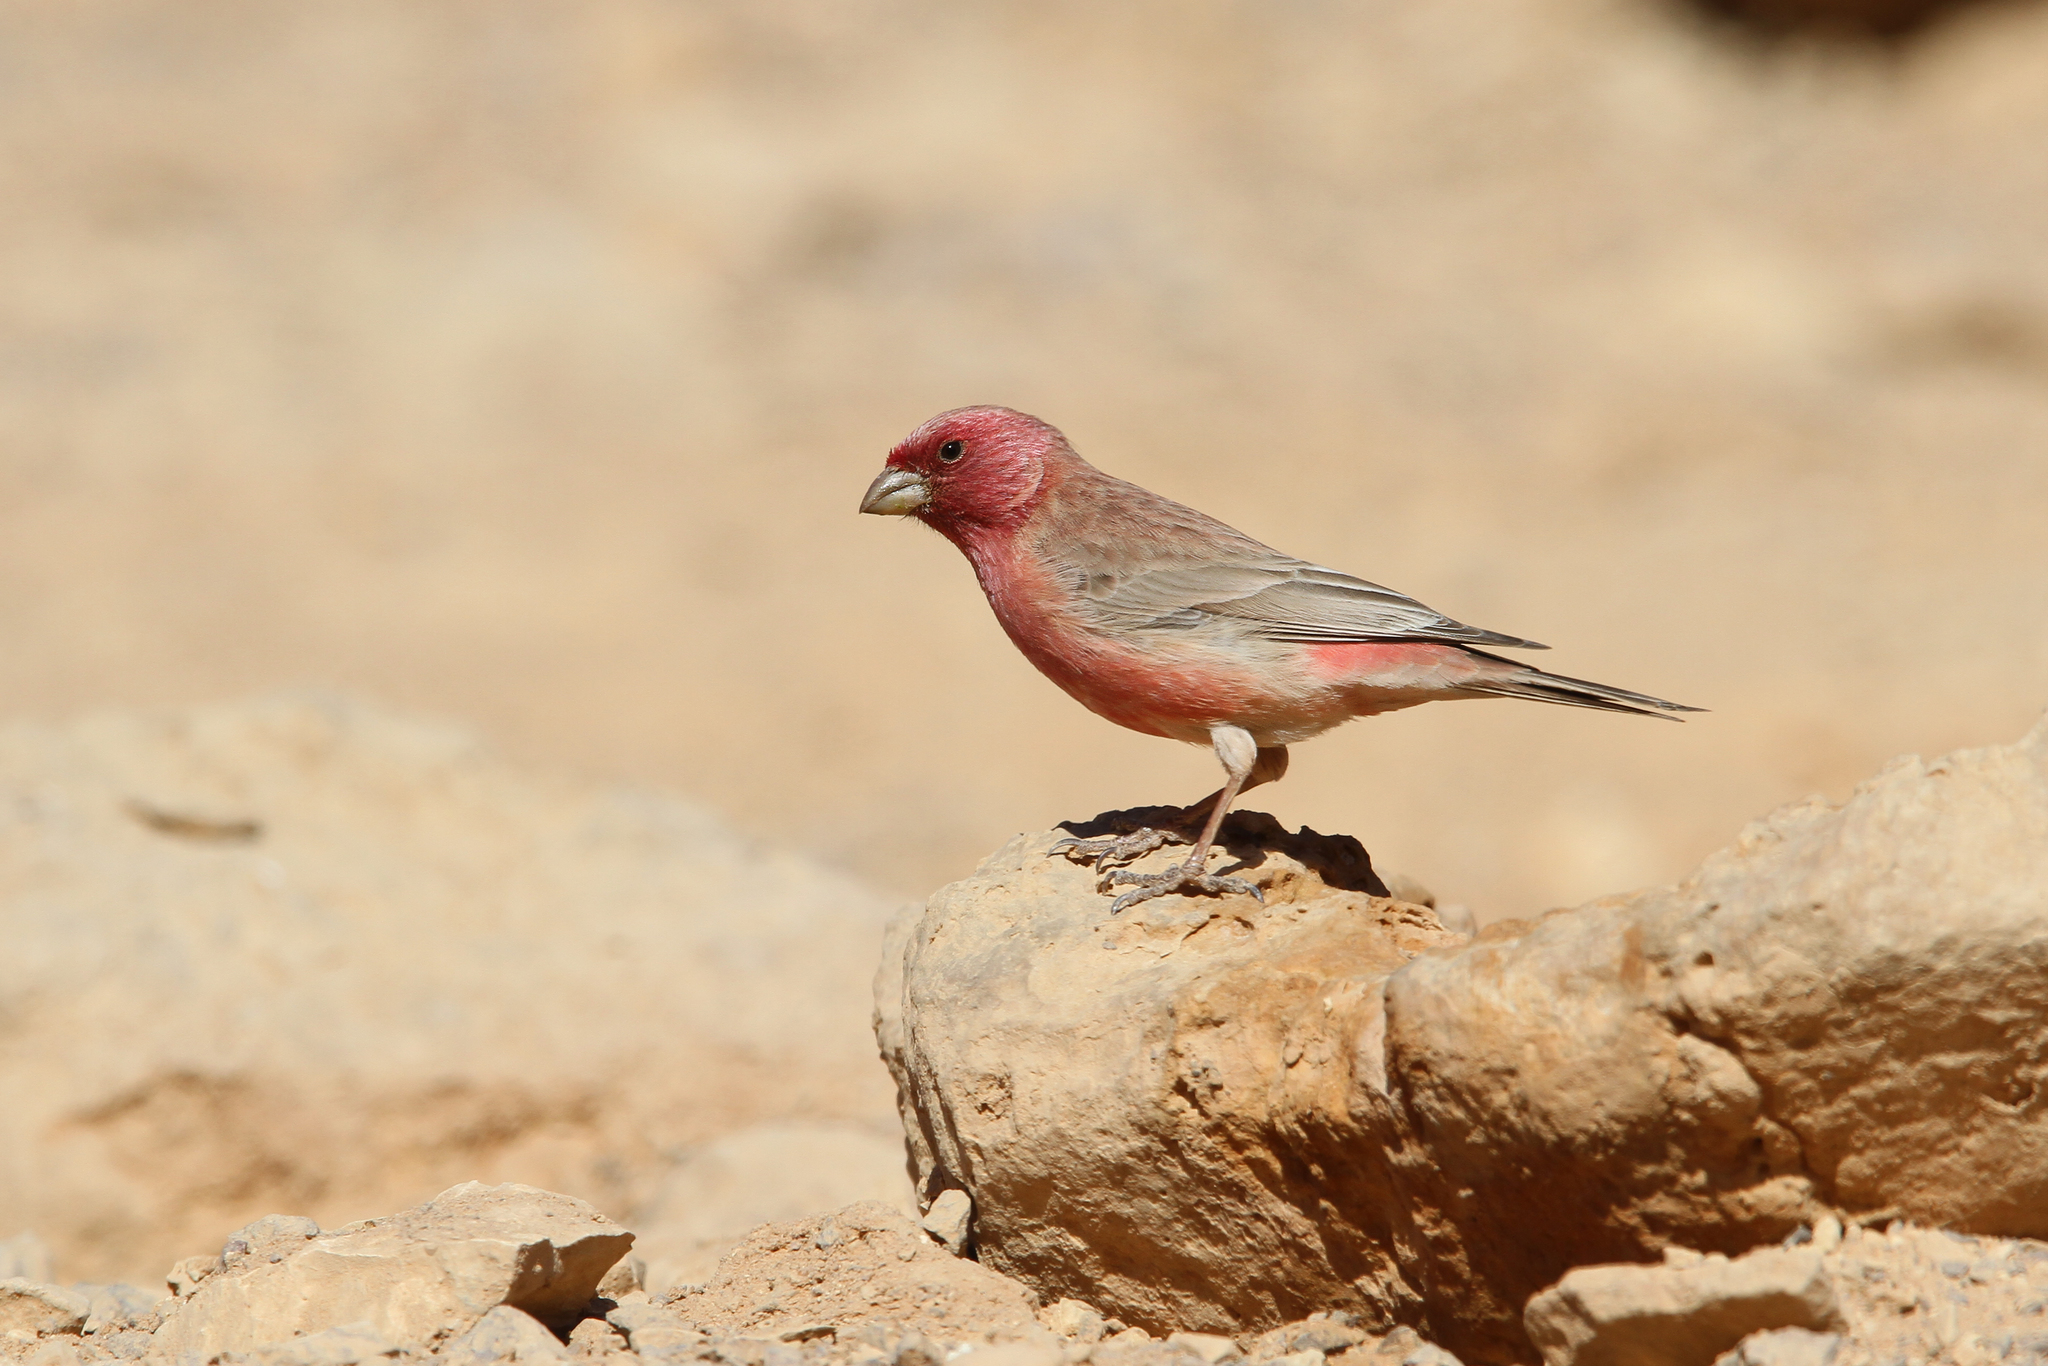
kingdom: Animalia
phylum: Chordata
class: Aves
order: Passeriformes
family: Fringillidae
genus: Carpodacus
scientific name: Carpodacus synoicus
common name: Sinai rosefinch
